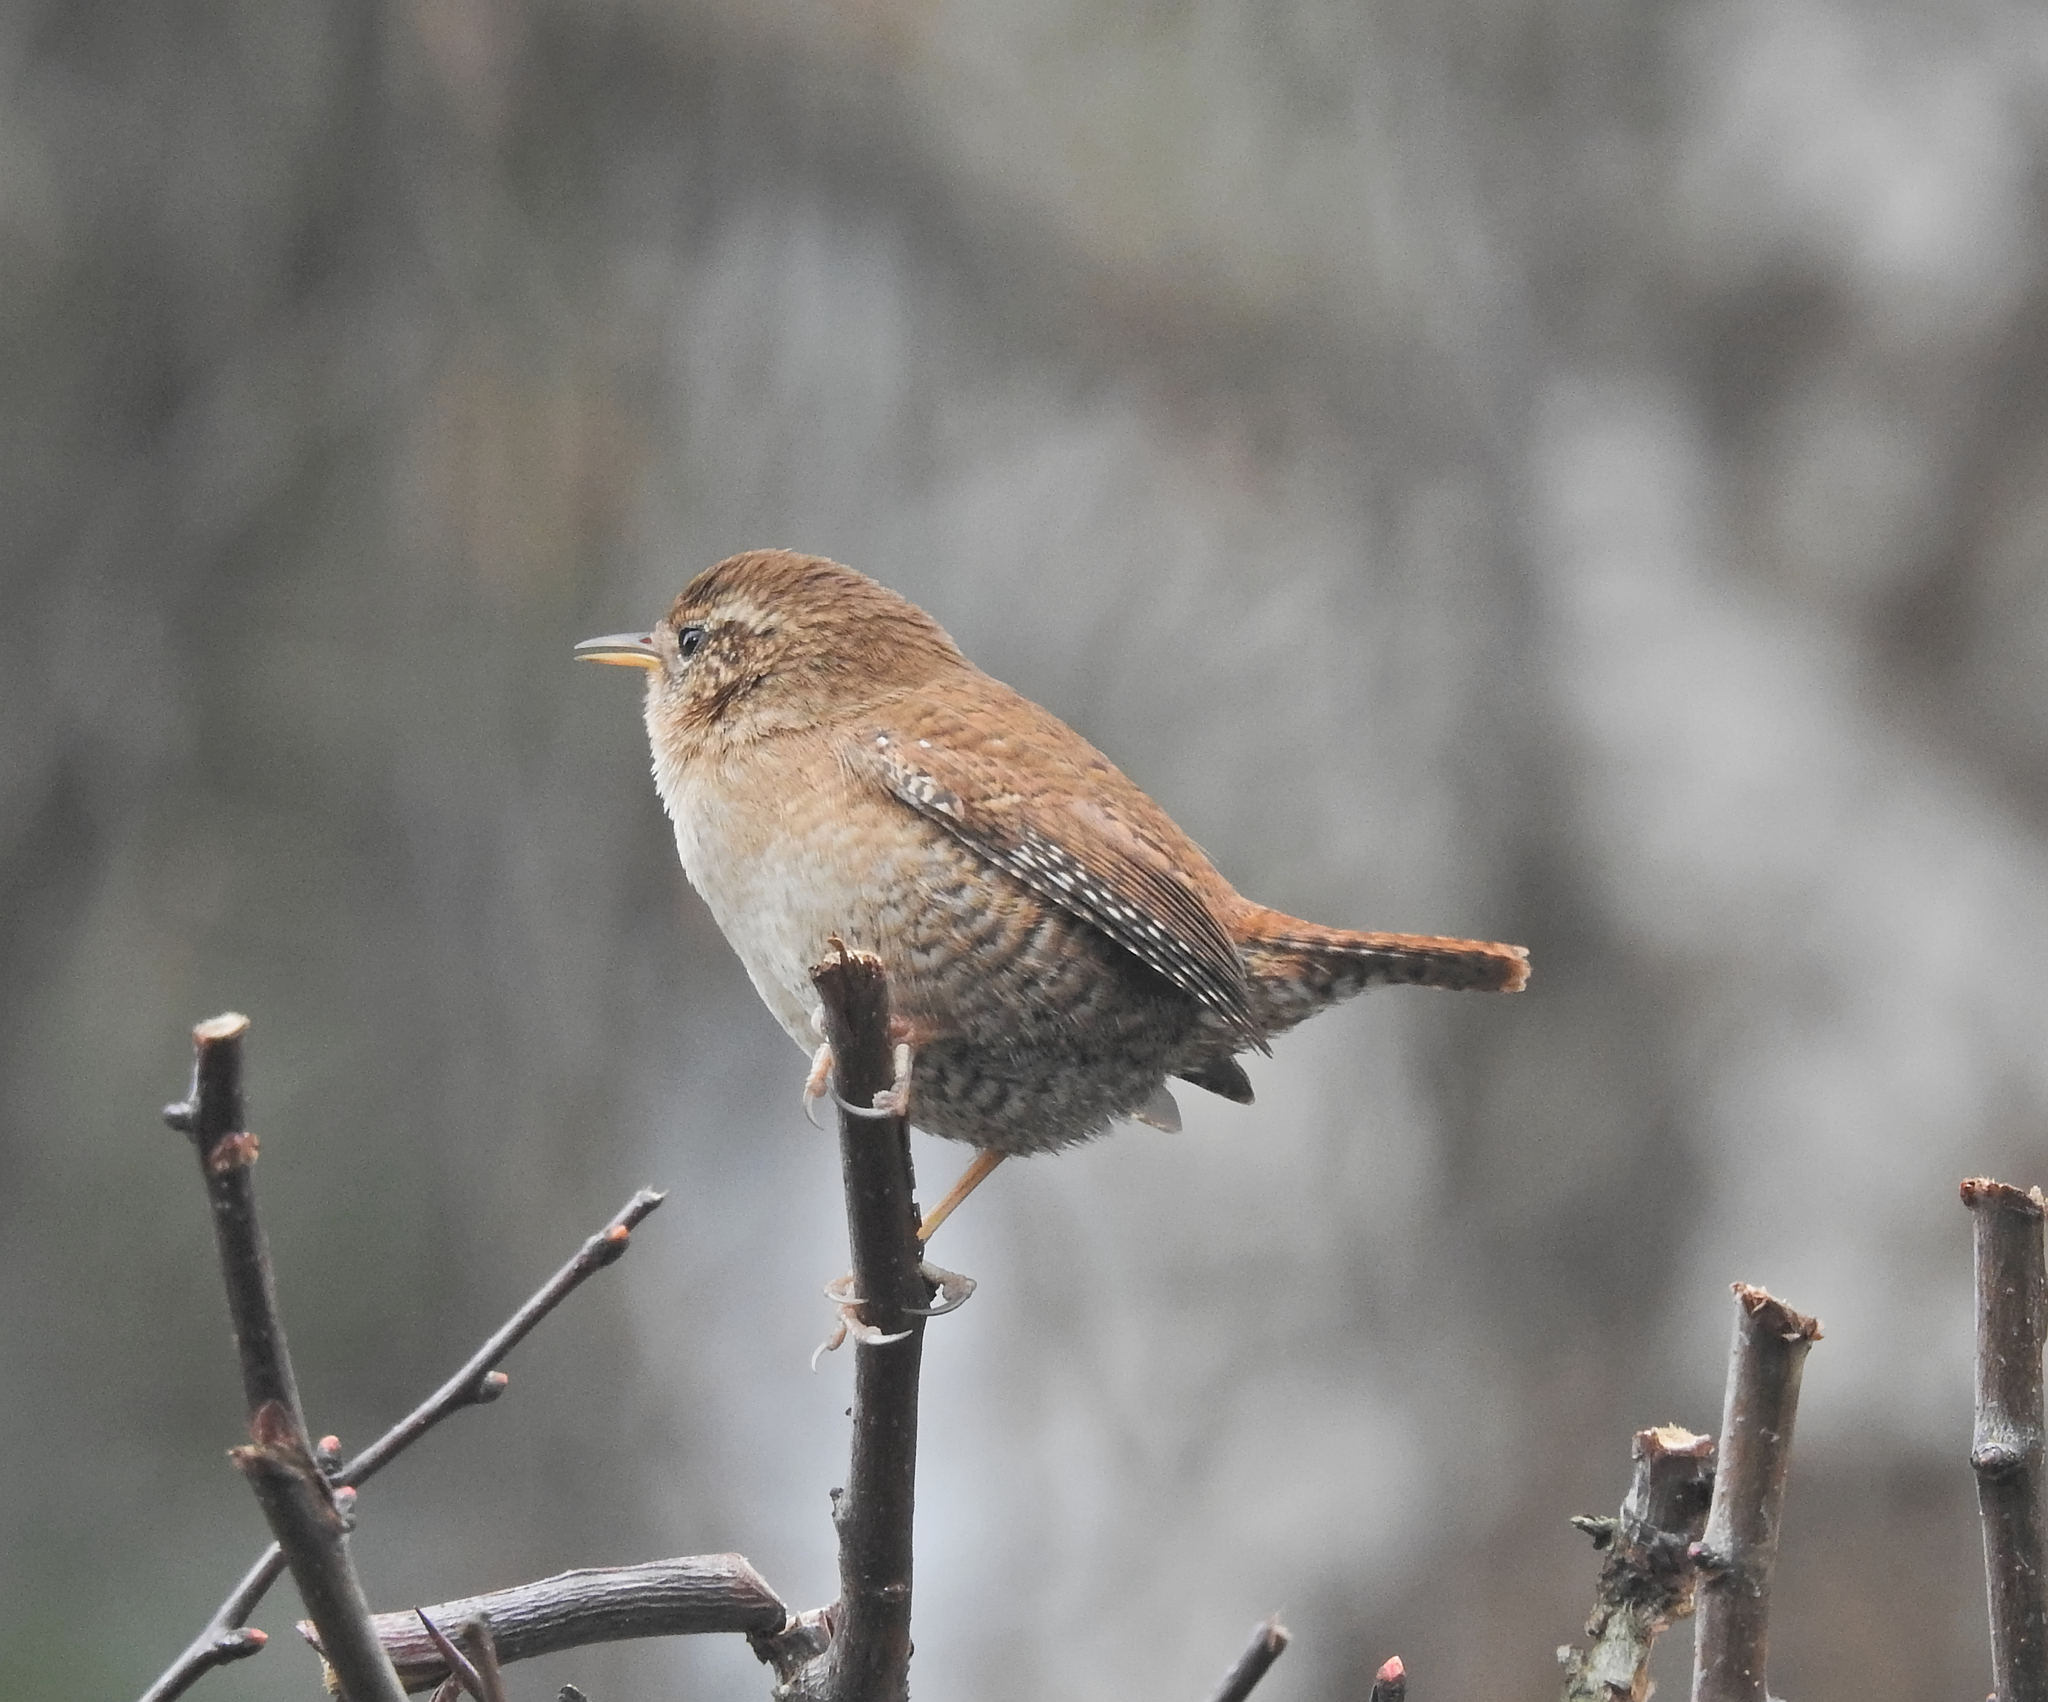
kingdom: Animalia
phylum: Chordata
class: Aves
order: Passeriformes
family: Troglodytidae
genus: Troglodytes
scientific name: Troglodytes troglodytes
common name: Eurasian wren
